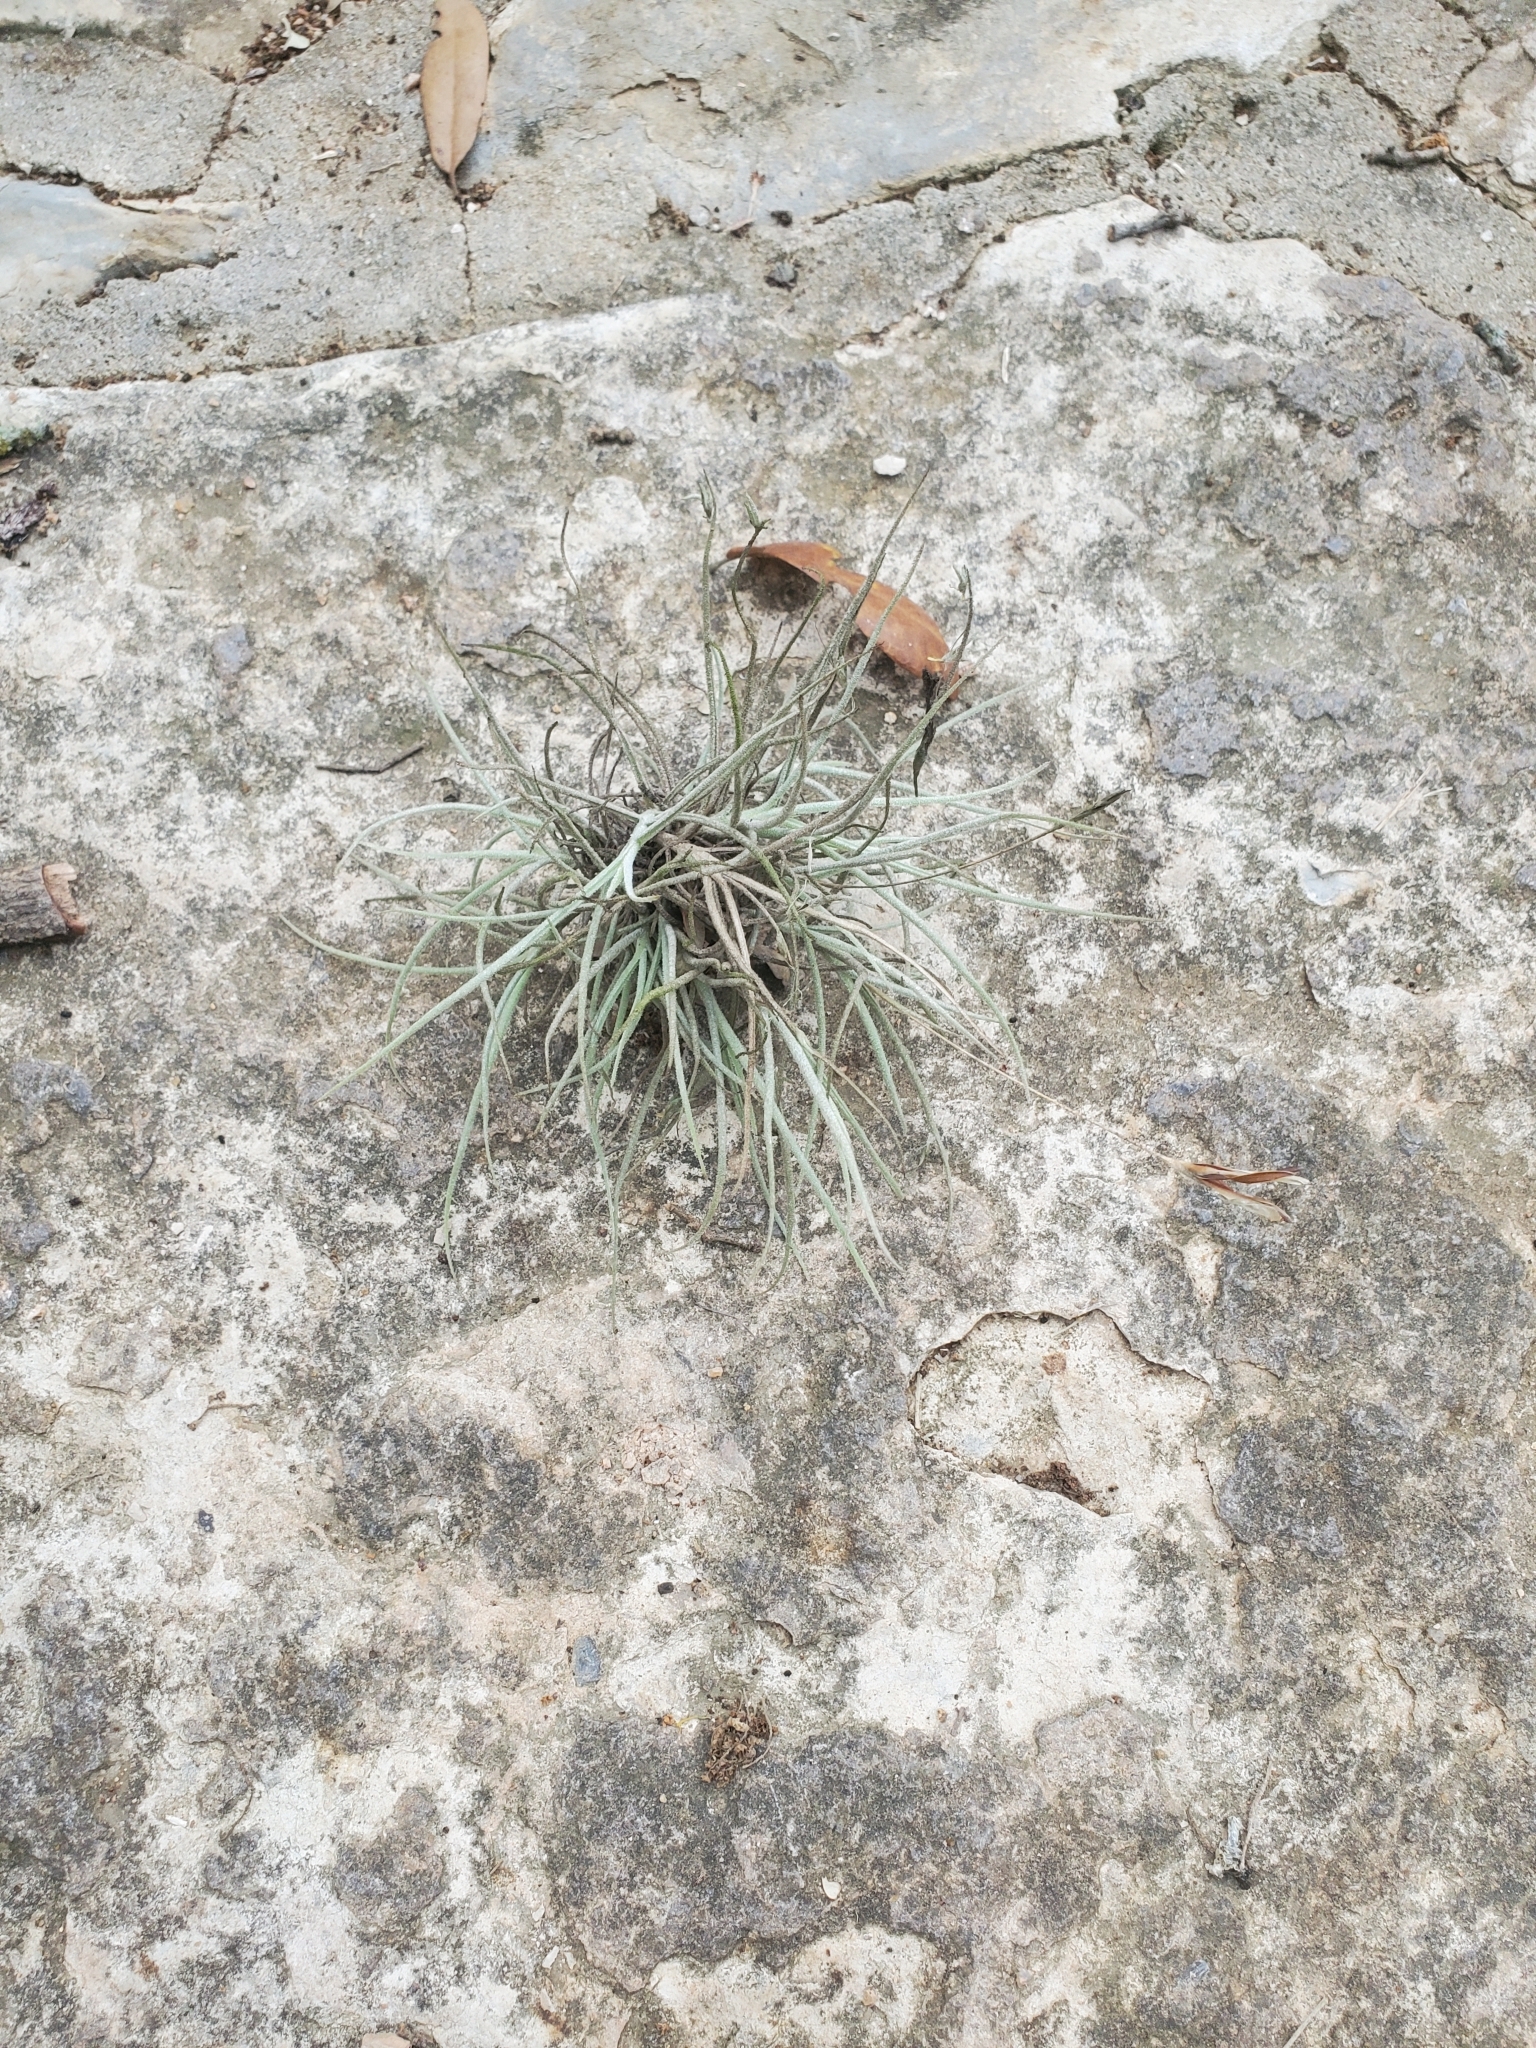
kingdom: Plantae
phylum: Tracheophyta
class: Liliopsida
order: Poales
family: Bromeliaceae
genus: Tillandsia
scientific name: Tillandsia recurvata
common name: Small ballmoss
